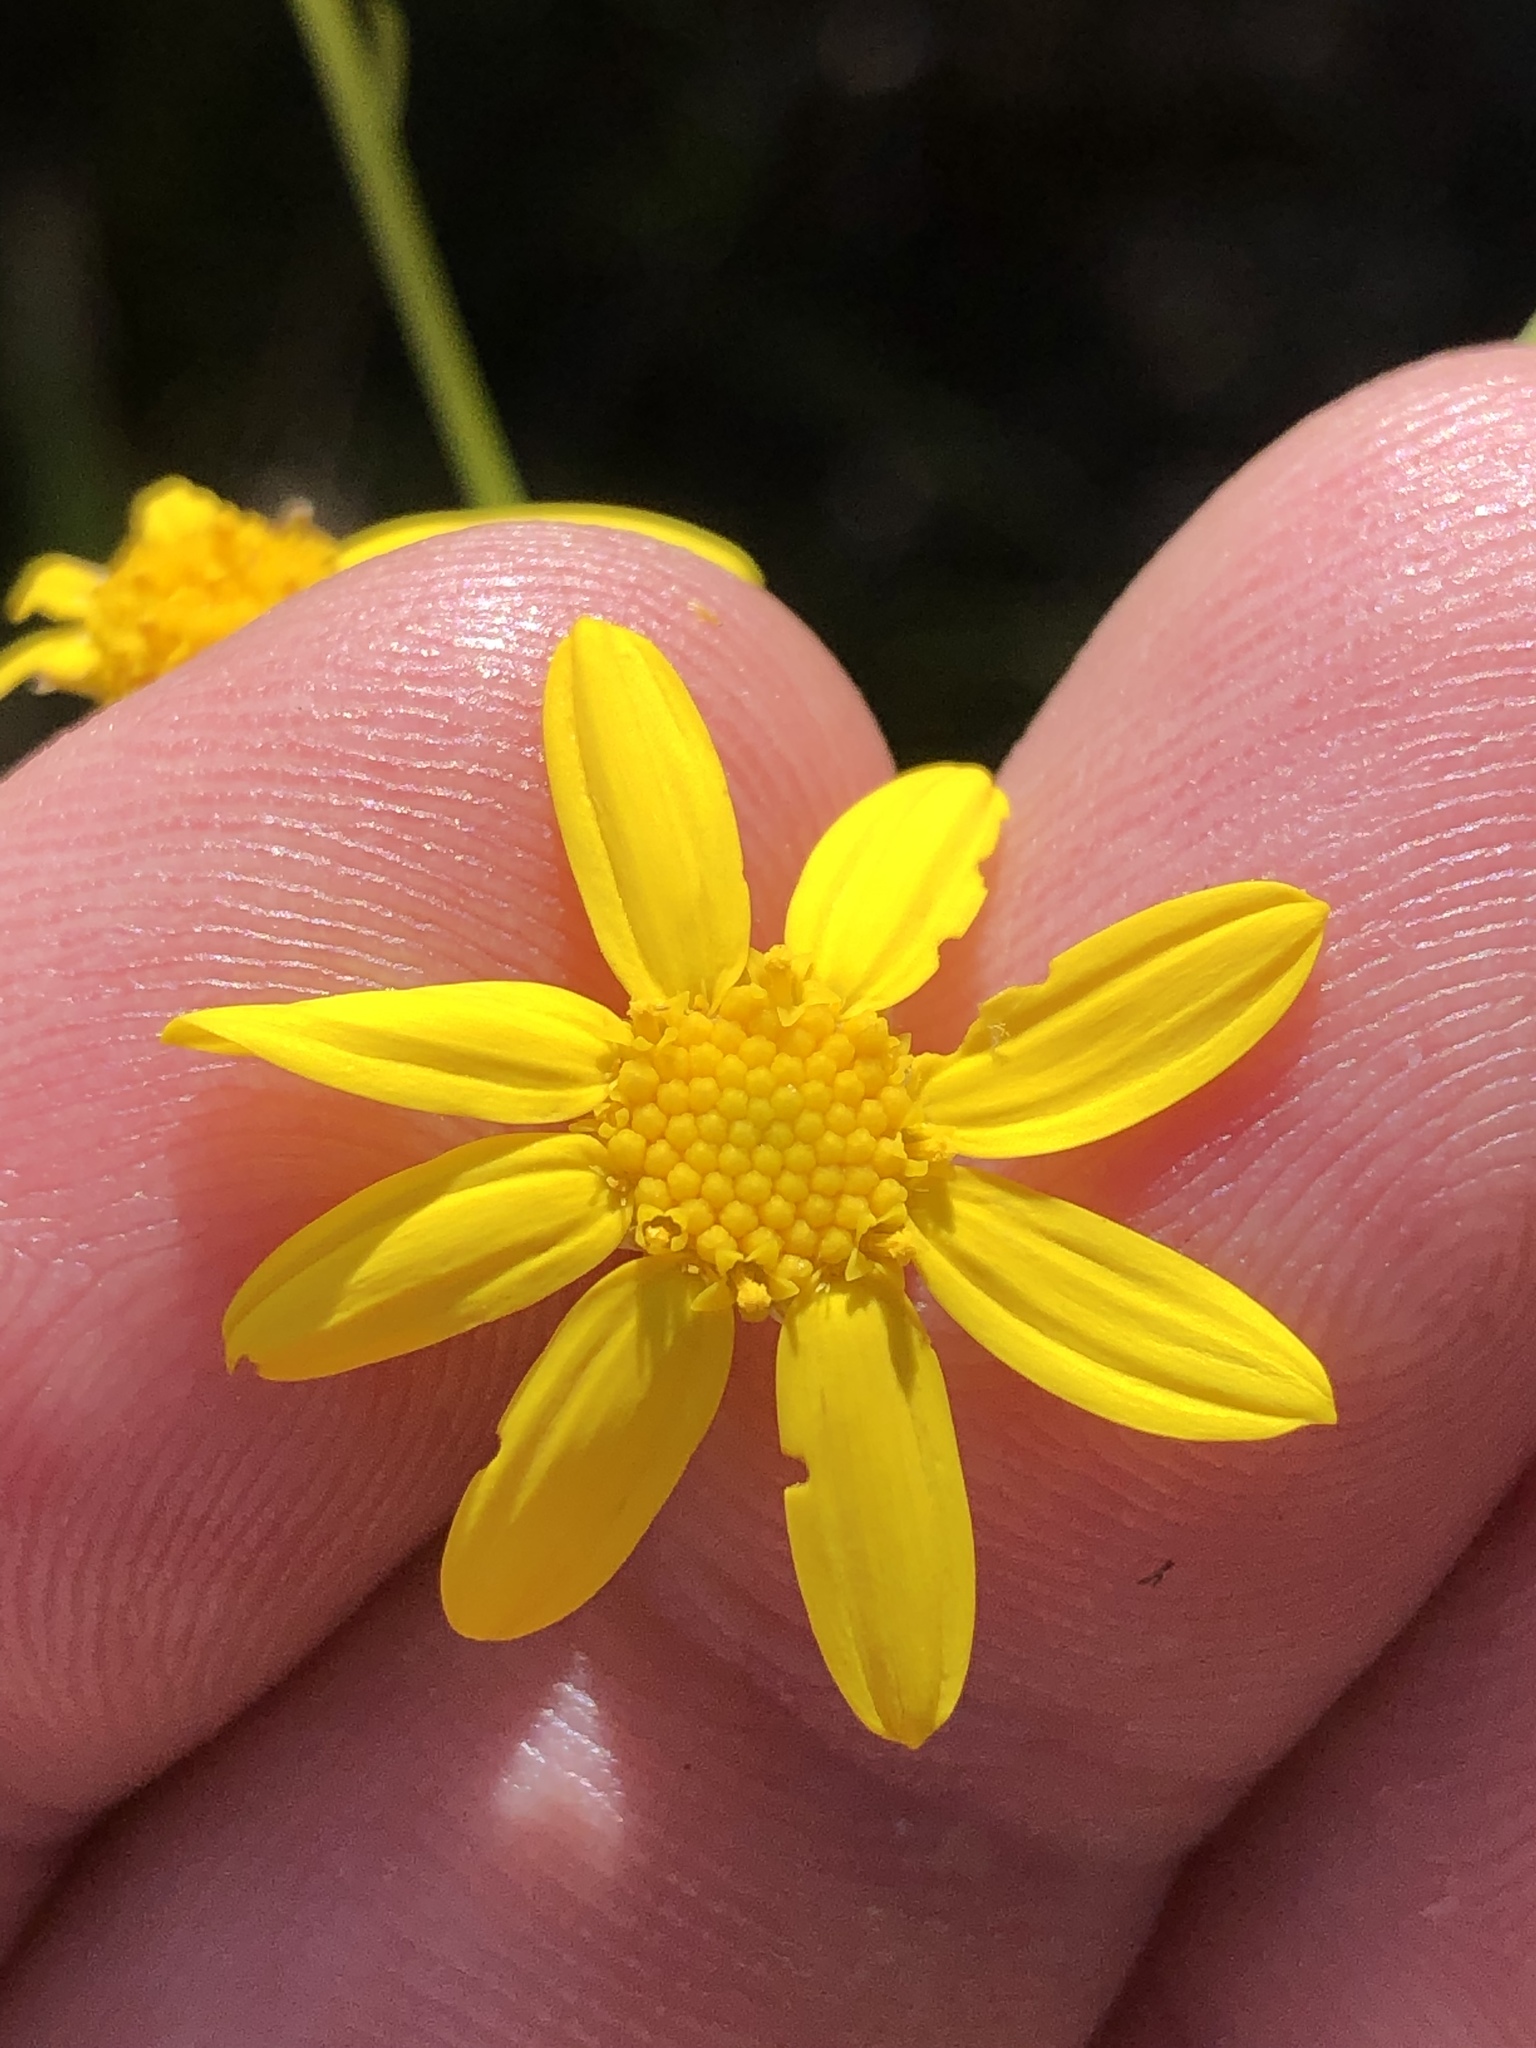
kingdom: Plantae
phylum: Tracheophyta
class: Magnoliopsida
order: Asterales
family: Asteraceae
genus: Othonna
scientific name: Othonna quinquedentata
